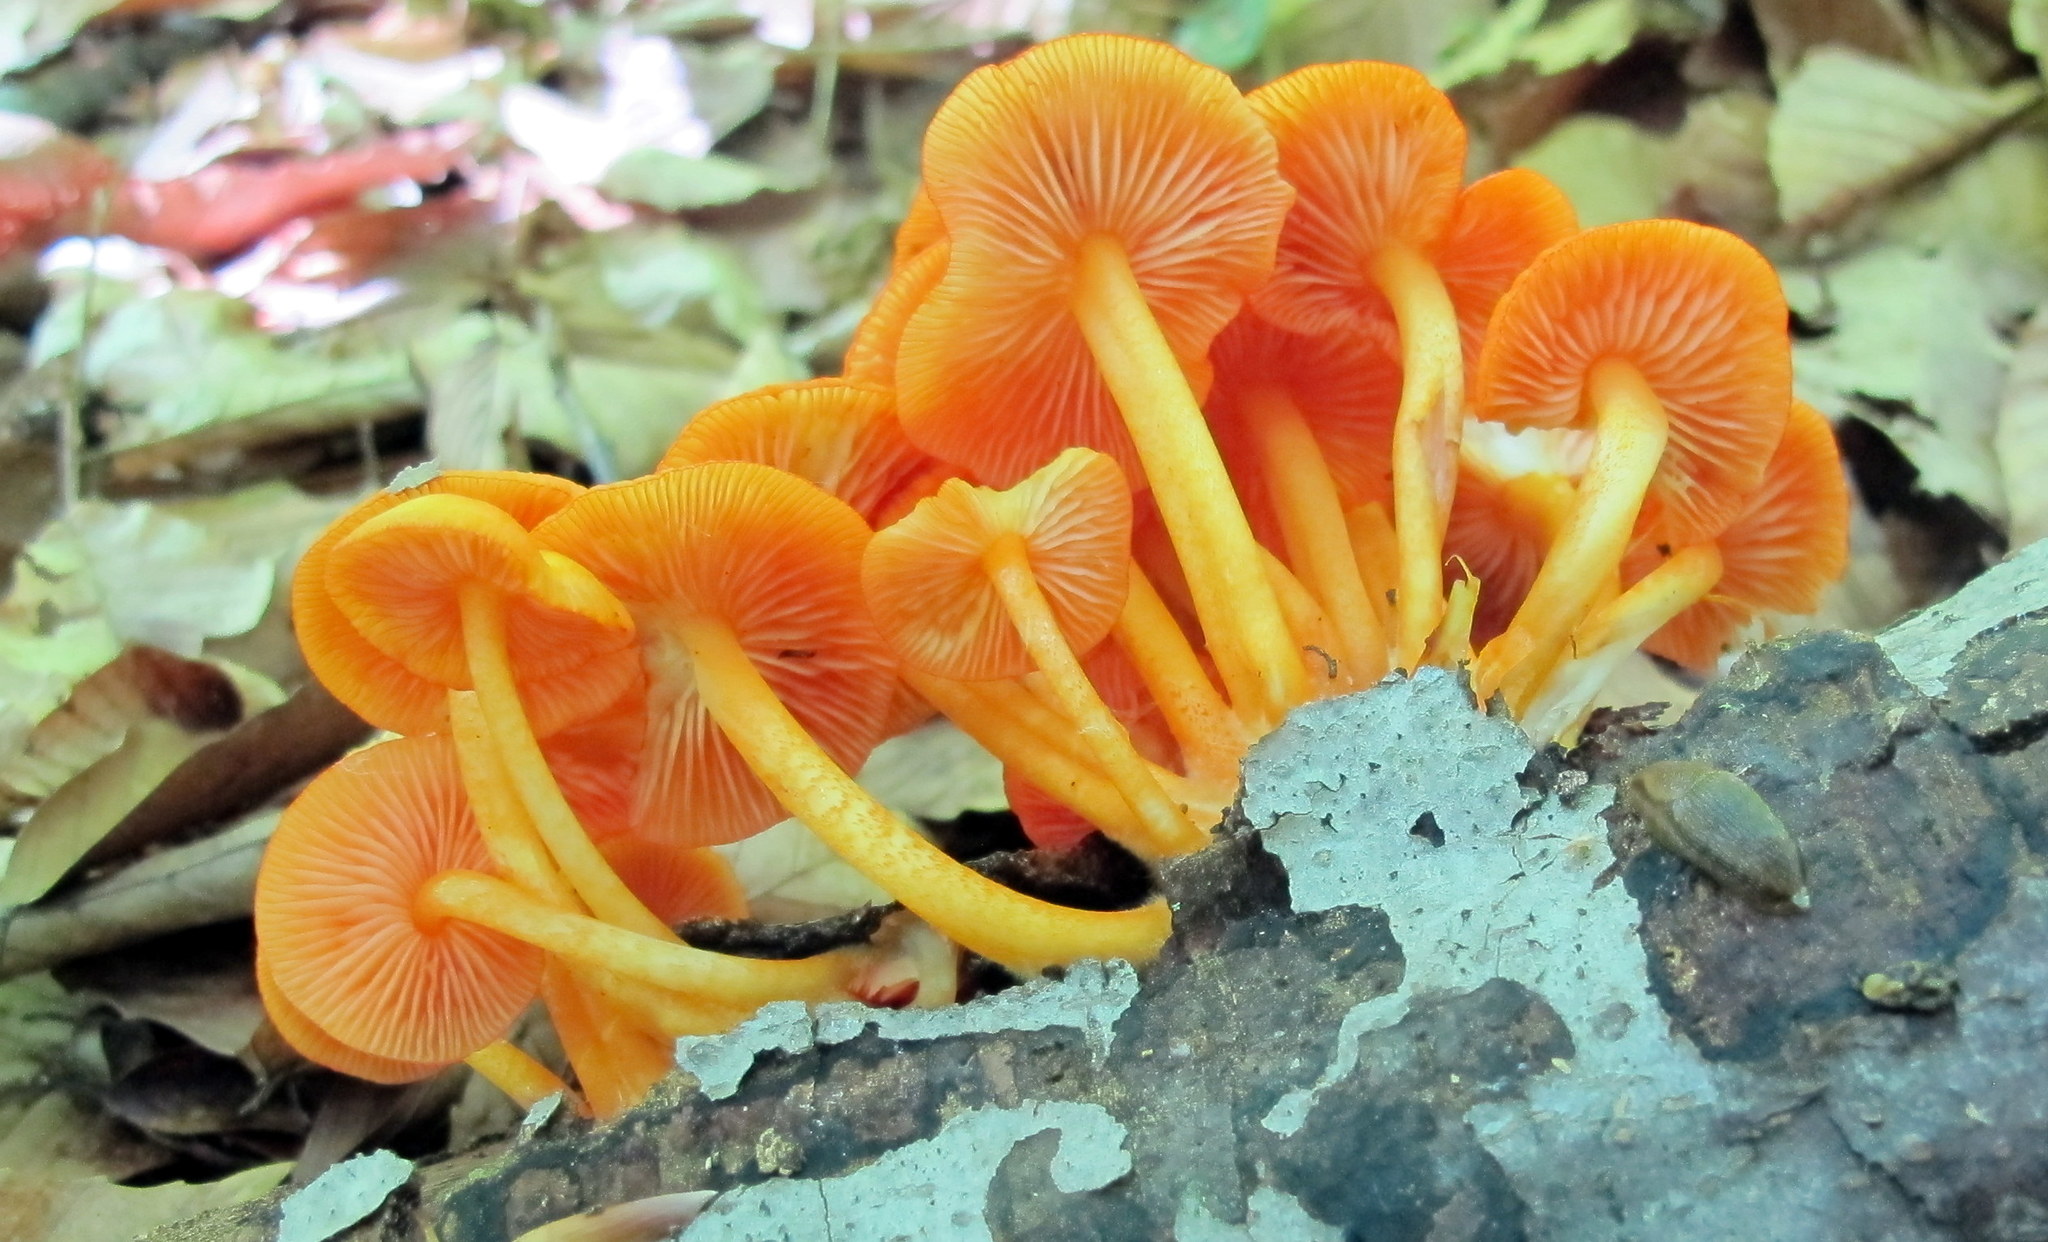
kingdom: Fungi
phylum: Basidiomycota
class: Agaricomycetes
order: Agaricales
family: Mycenaceae
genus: Mycena
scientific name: Mycena leaiana
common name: Orange mycena
